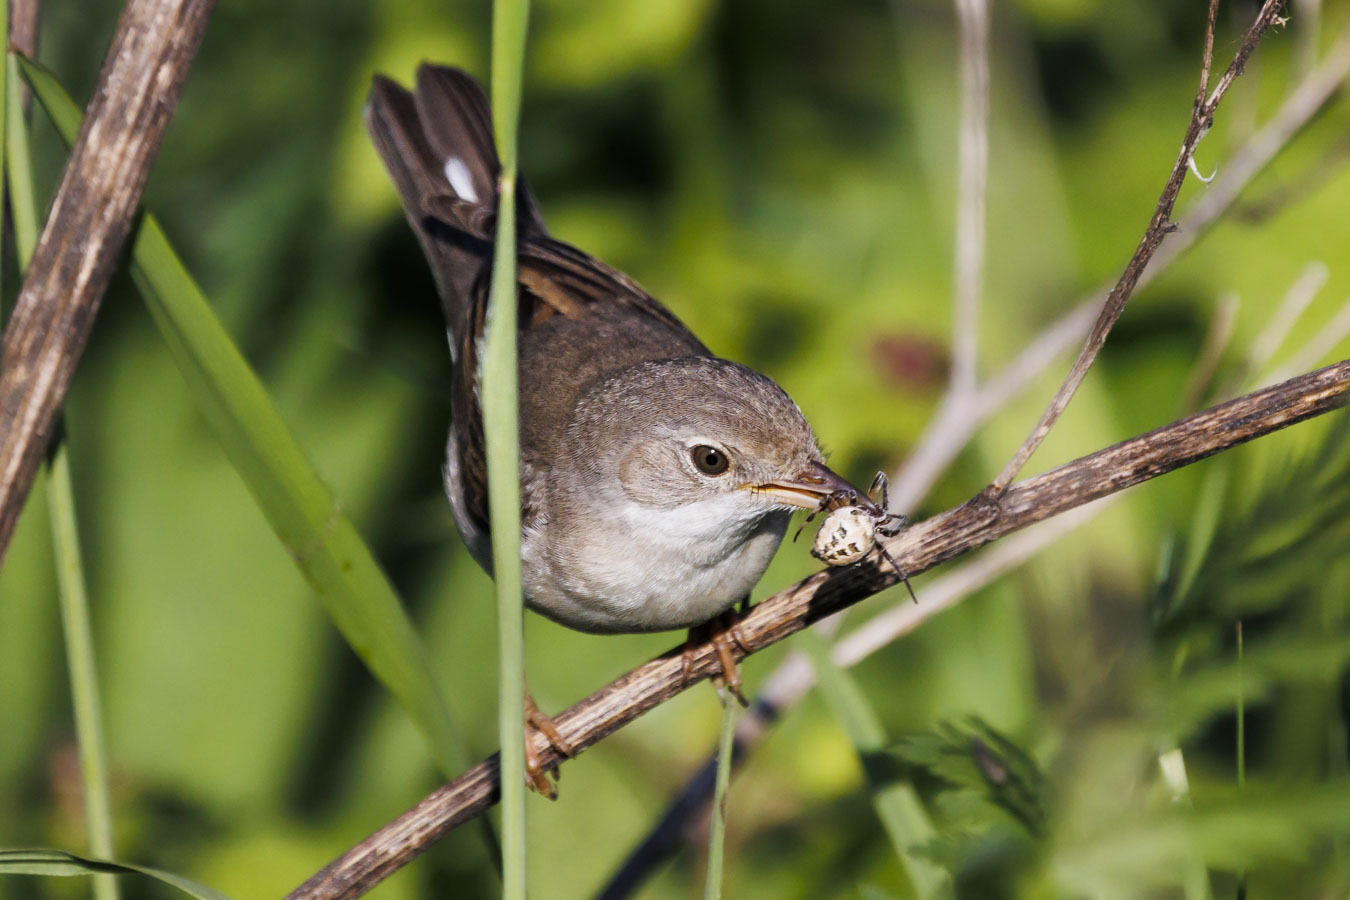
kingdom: Animalia
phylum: Chordata
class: Aves
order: Passeriformes
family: Sylviidae
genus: Sylvia
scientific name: Sylvia communis
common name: Common whitethroat
